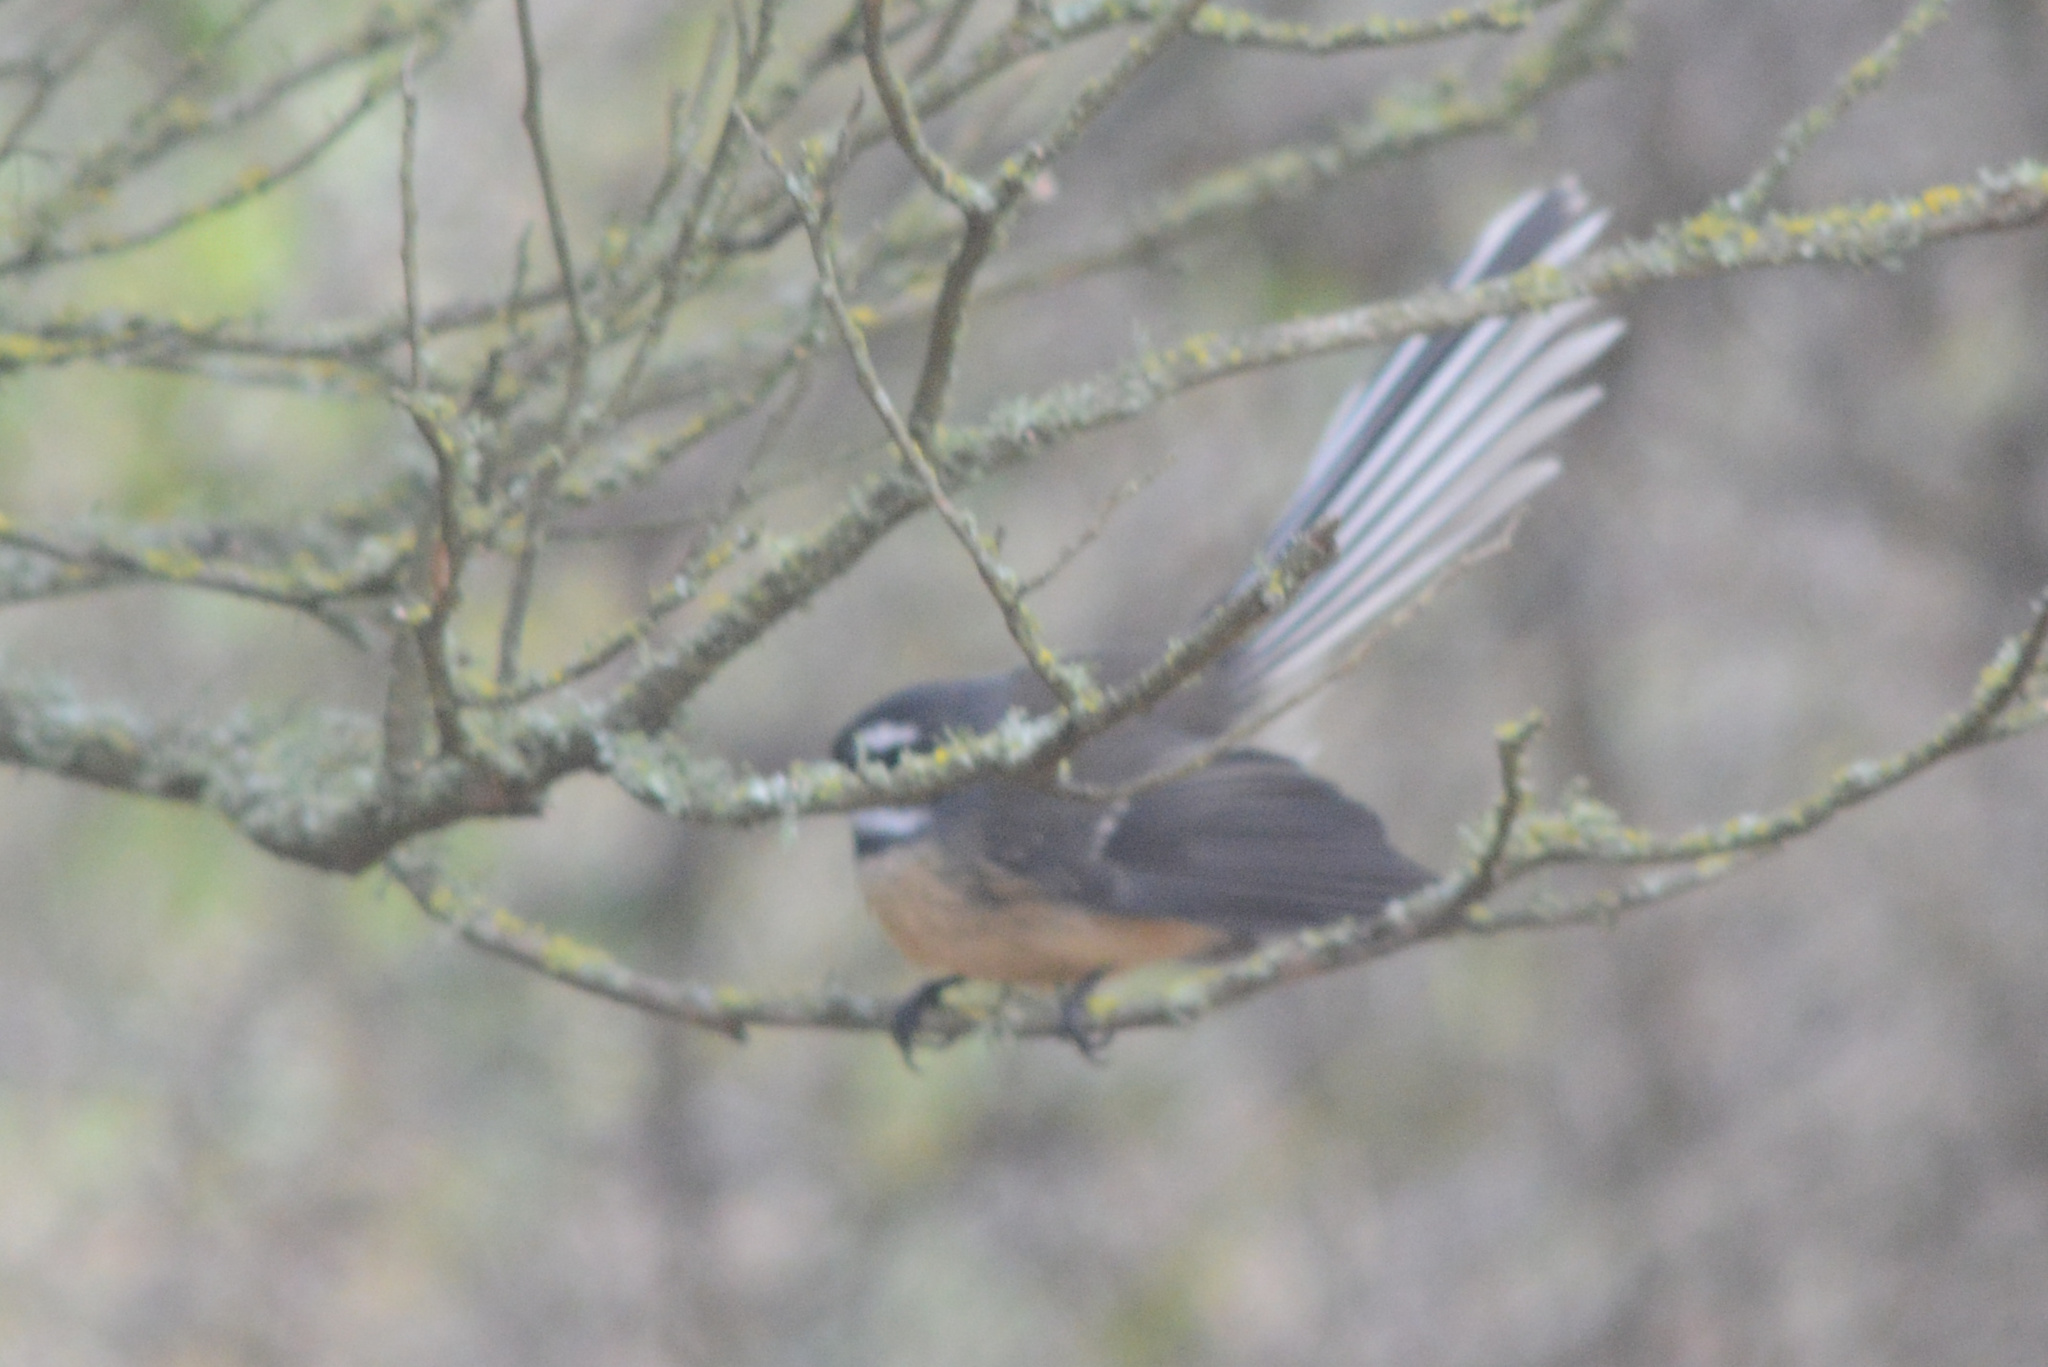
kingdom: Animalia
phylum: Chordata
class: Aves
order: Passeriformes
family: Rhipiduridae
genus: Rhipidura
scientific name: Rhipidura fuliginosa
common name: New zealand fantail
